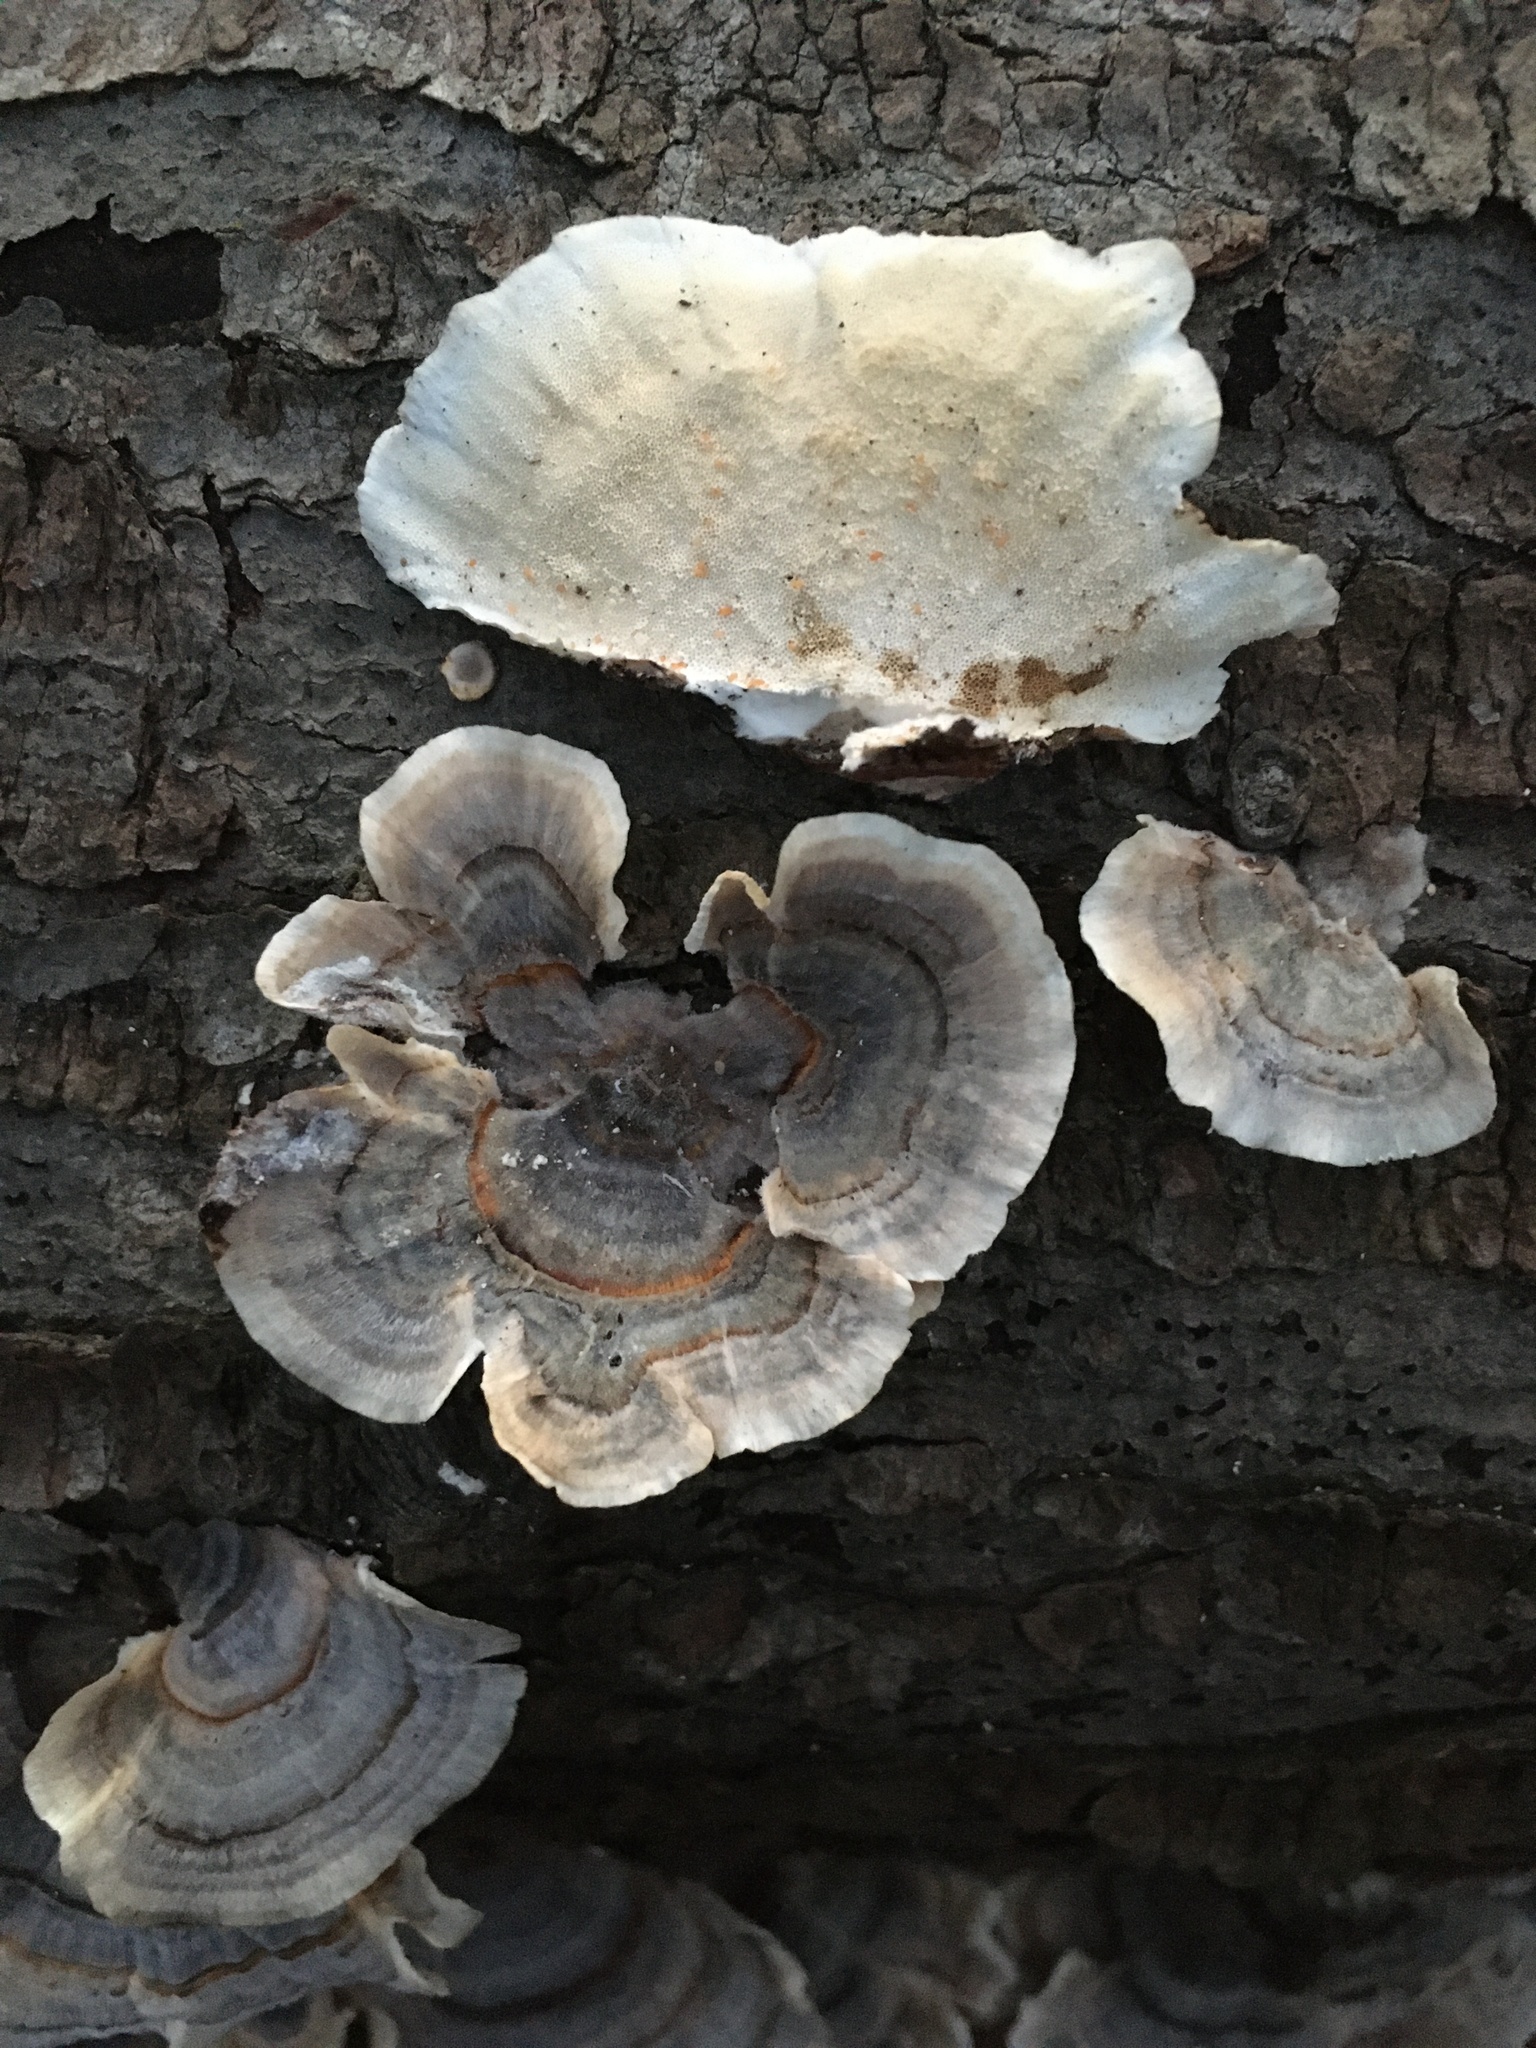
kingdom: Fungi
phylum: Basidiomycota
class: Agaricomycetes
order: Polyporales
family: Polyporaceae
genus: Trametes
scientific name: Trametes versicolor
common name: Turkeytail
